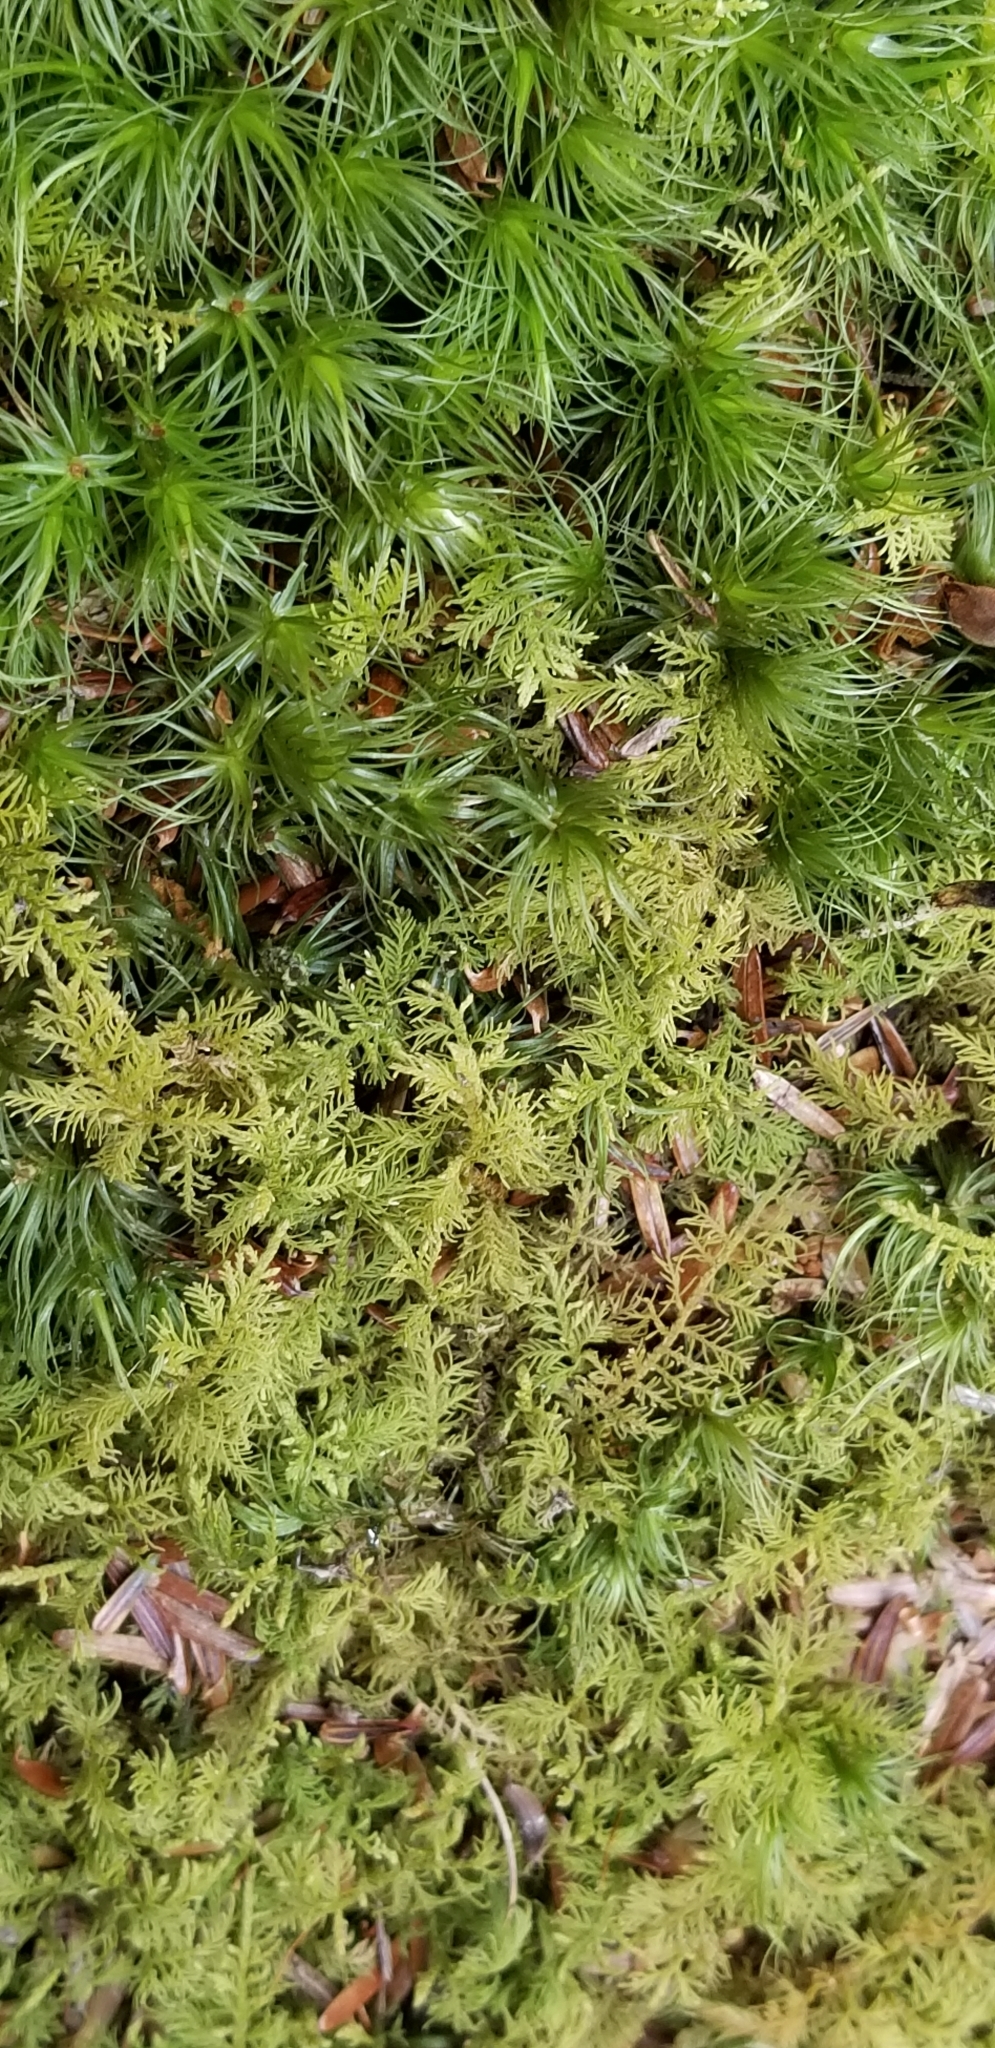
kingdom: Plantae
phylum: Bryophyta
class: Bryopsida
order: Hypnales
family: Thuidiaceae
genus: Thuidium
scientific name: Thuidium delicatulum
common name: Delicate fern moss
